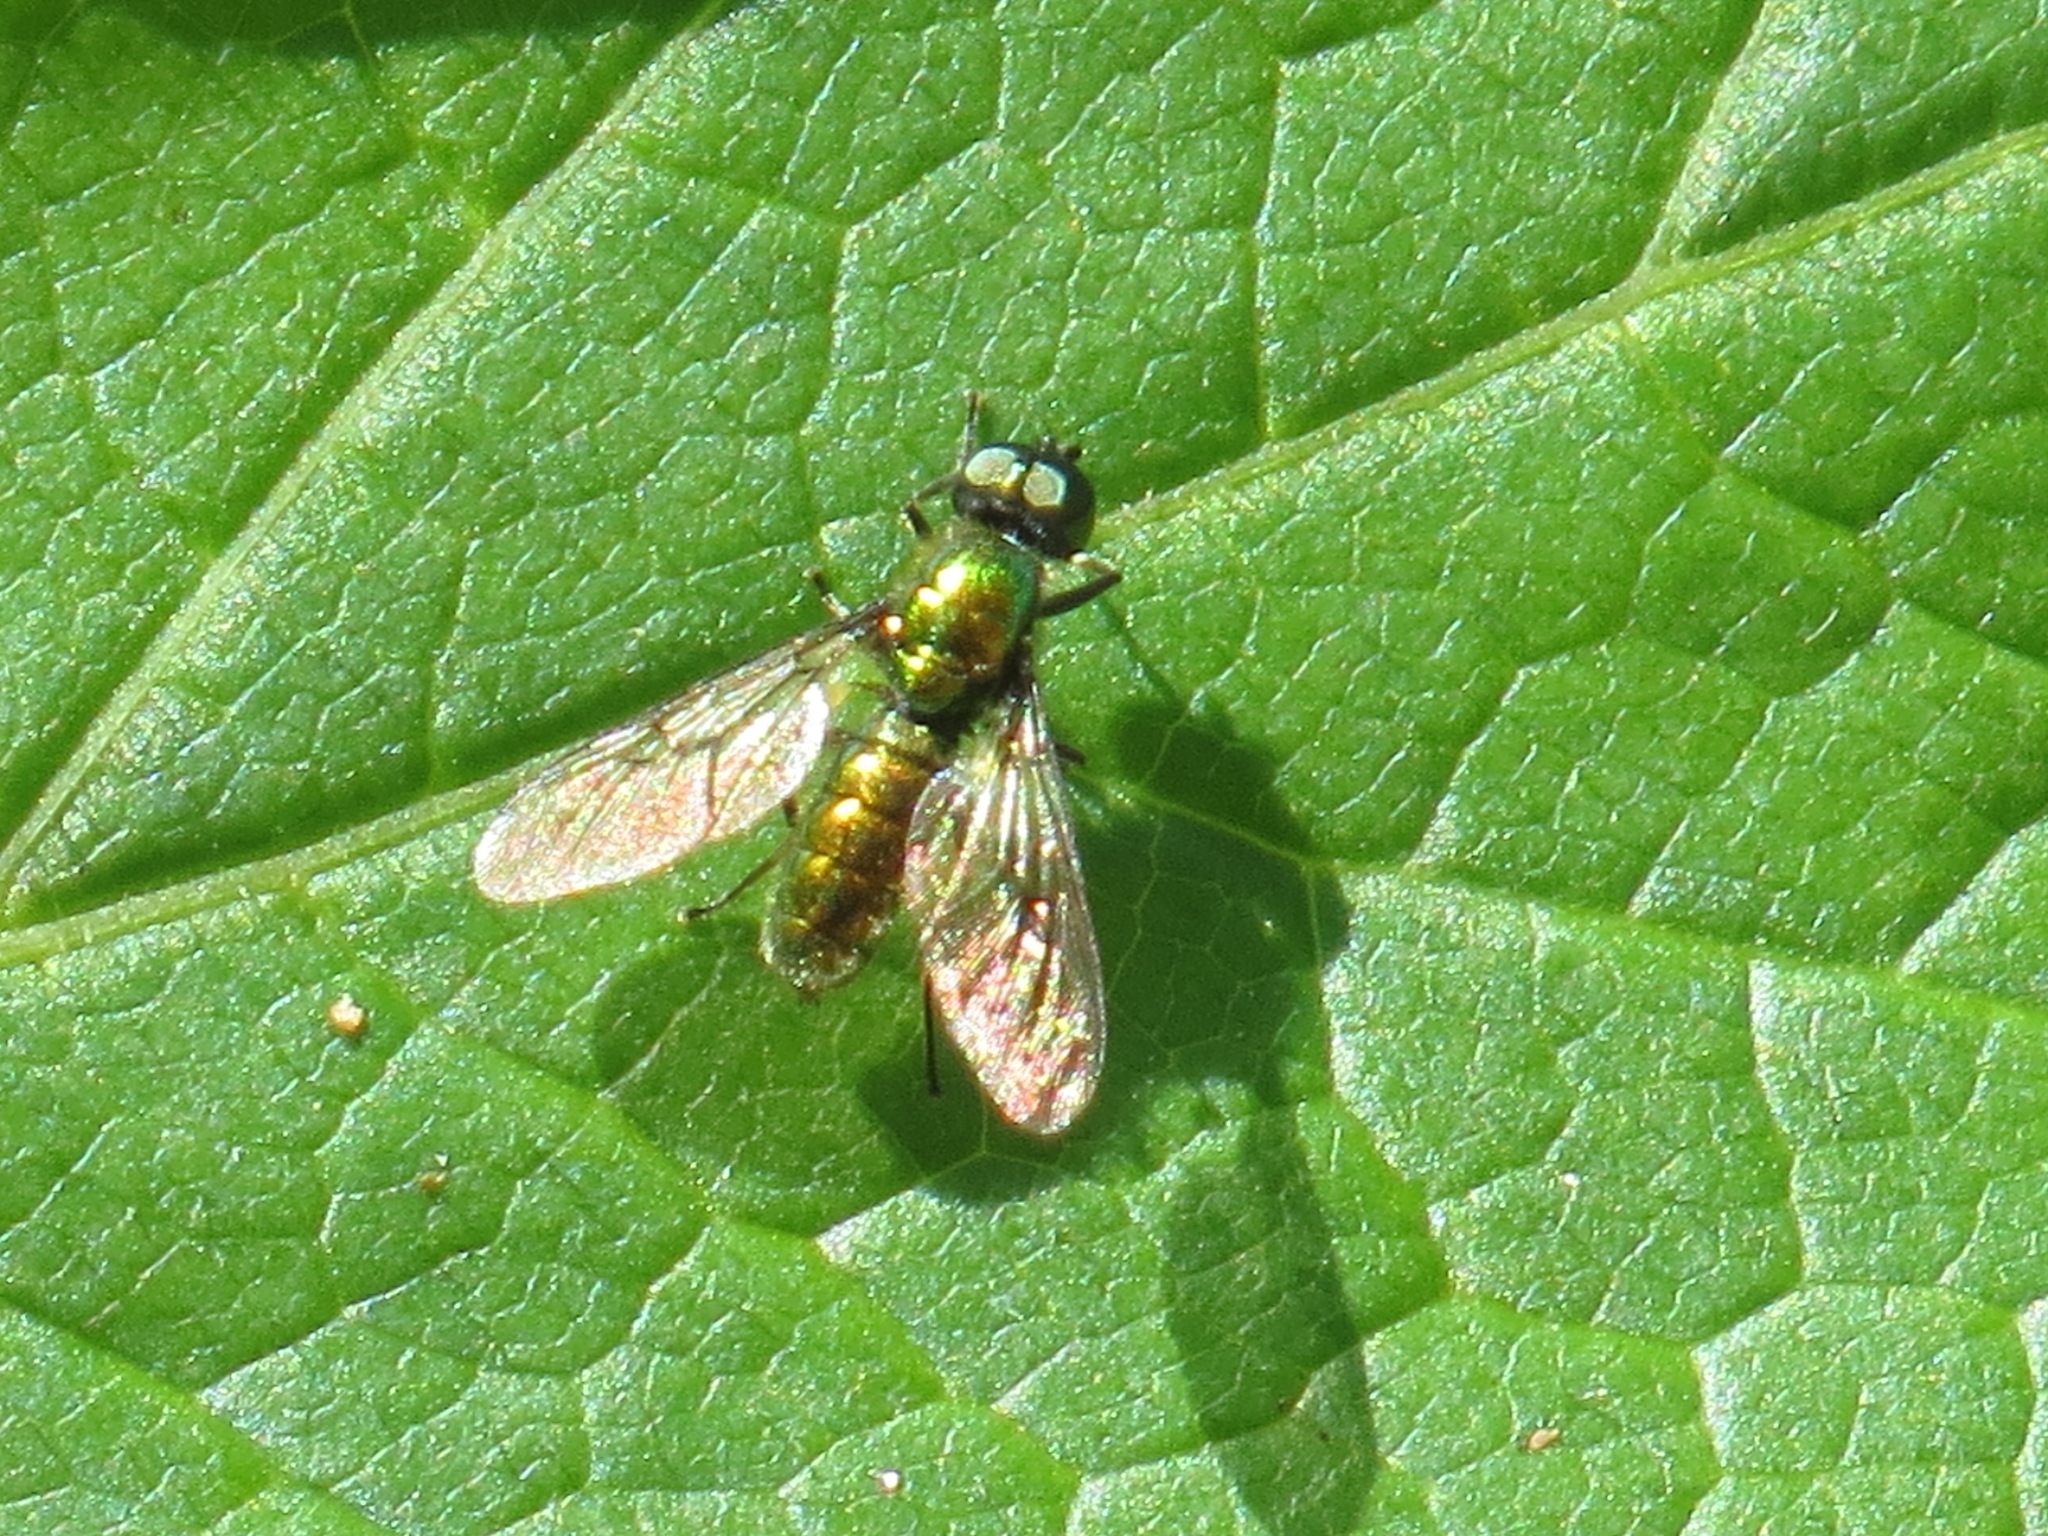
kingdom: Animalia
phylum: Arthropoda
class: Insecta
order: Diptera
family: Stratiomyidae
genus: Sargus
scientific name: Sargus viridis
